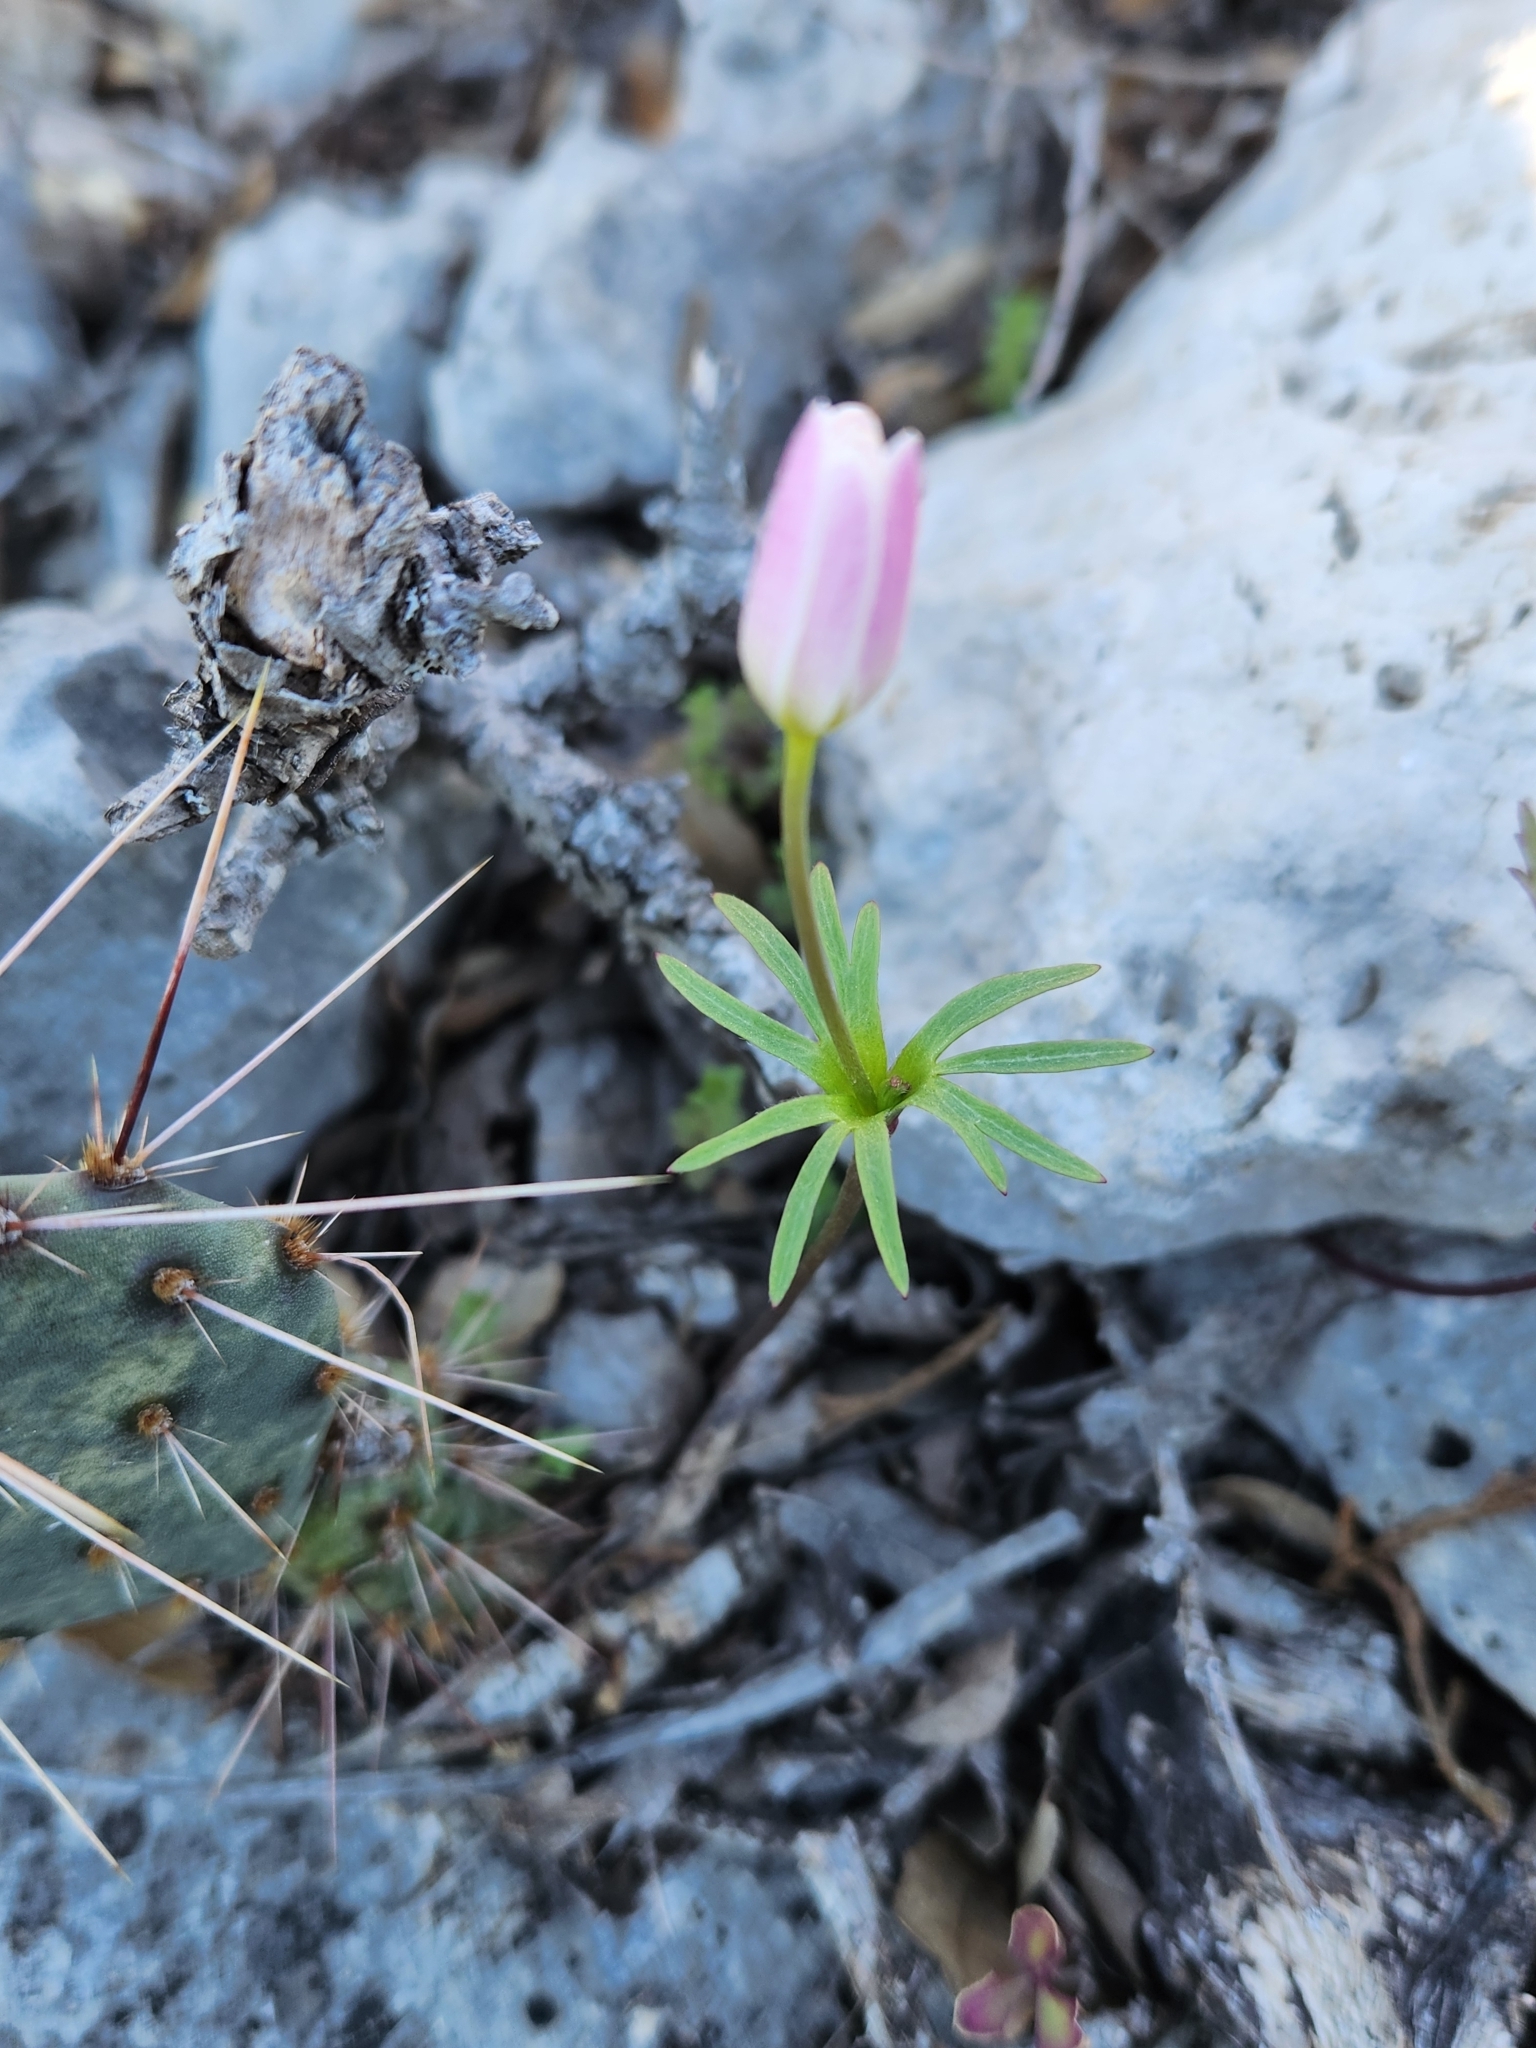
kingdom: Plantae
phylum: Tracheophyta
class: Magnoliopsida
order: Ranunculales
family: Ranunculaceae
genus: Anemone
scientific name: Anemone edwardsiana
